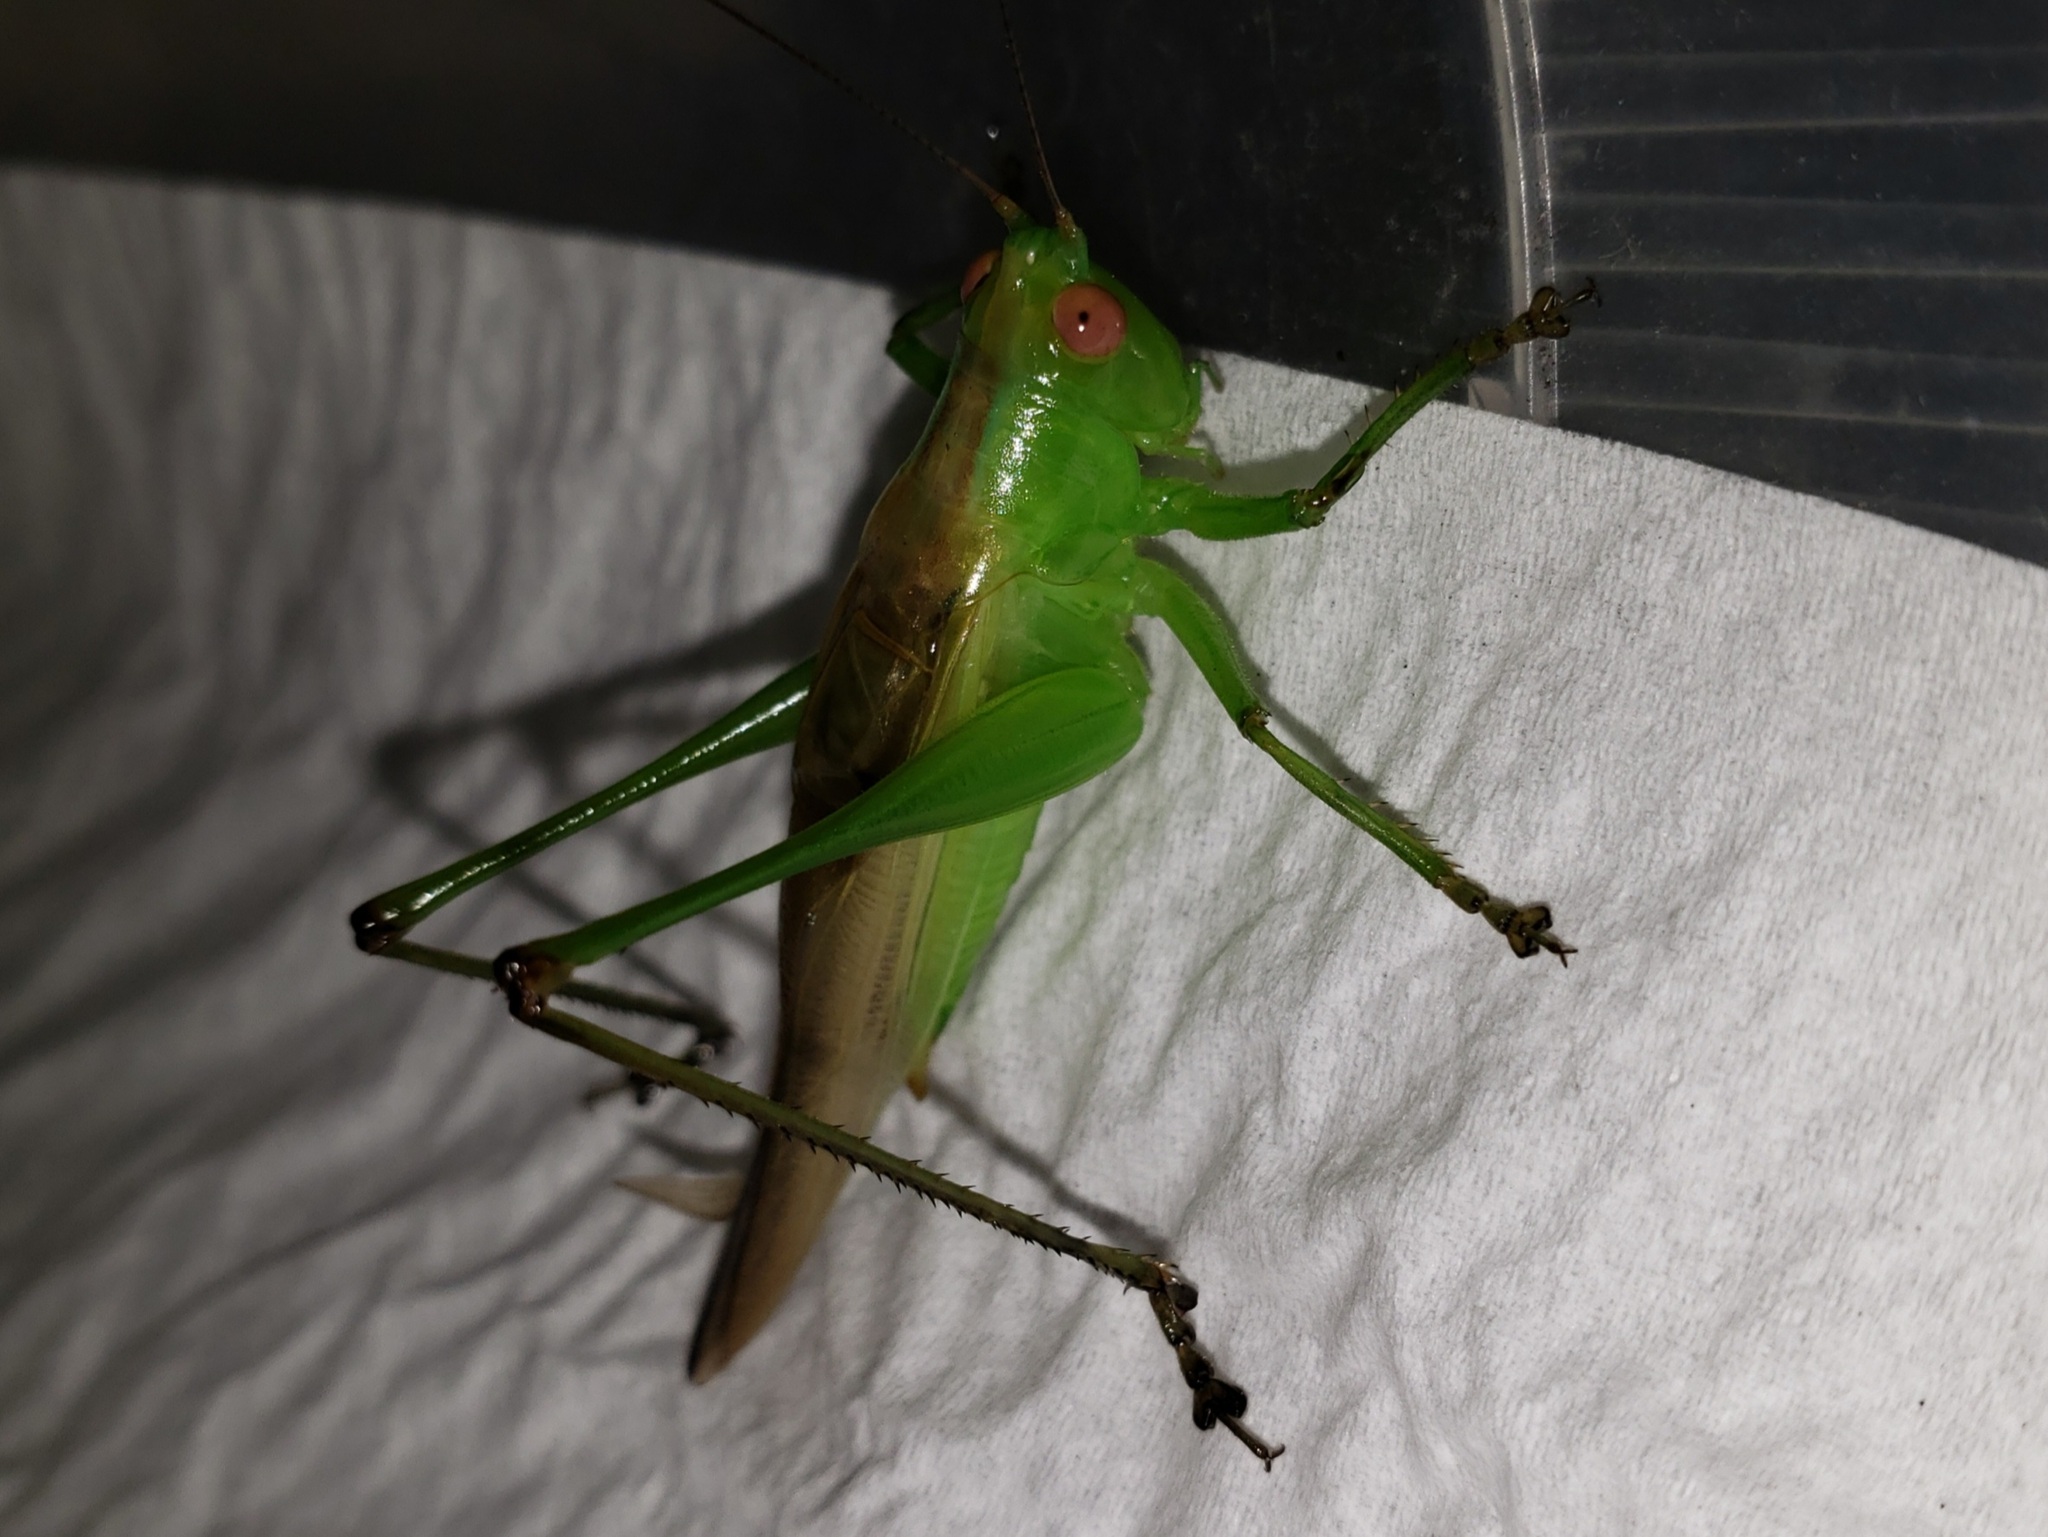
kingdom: Animalia
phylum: Arthropoda
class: Insecta
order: Orthoptera
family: Tettigoniidae
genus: Orchelimum
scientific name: Orchelimum erythrocephalum
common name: Red-headed meadow katydid
